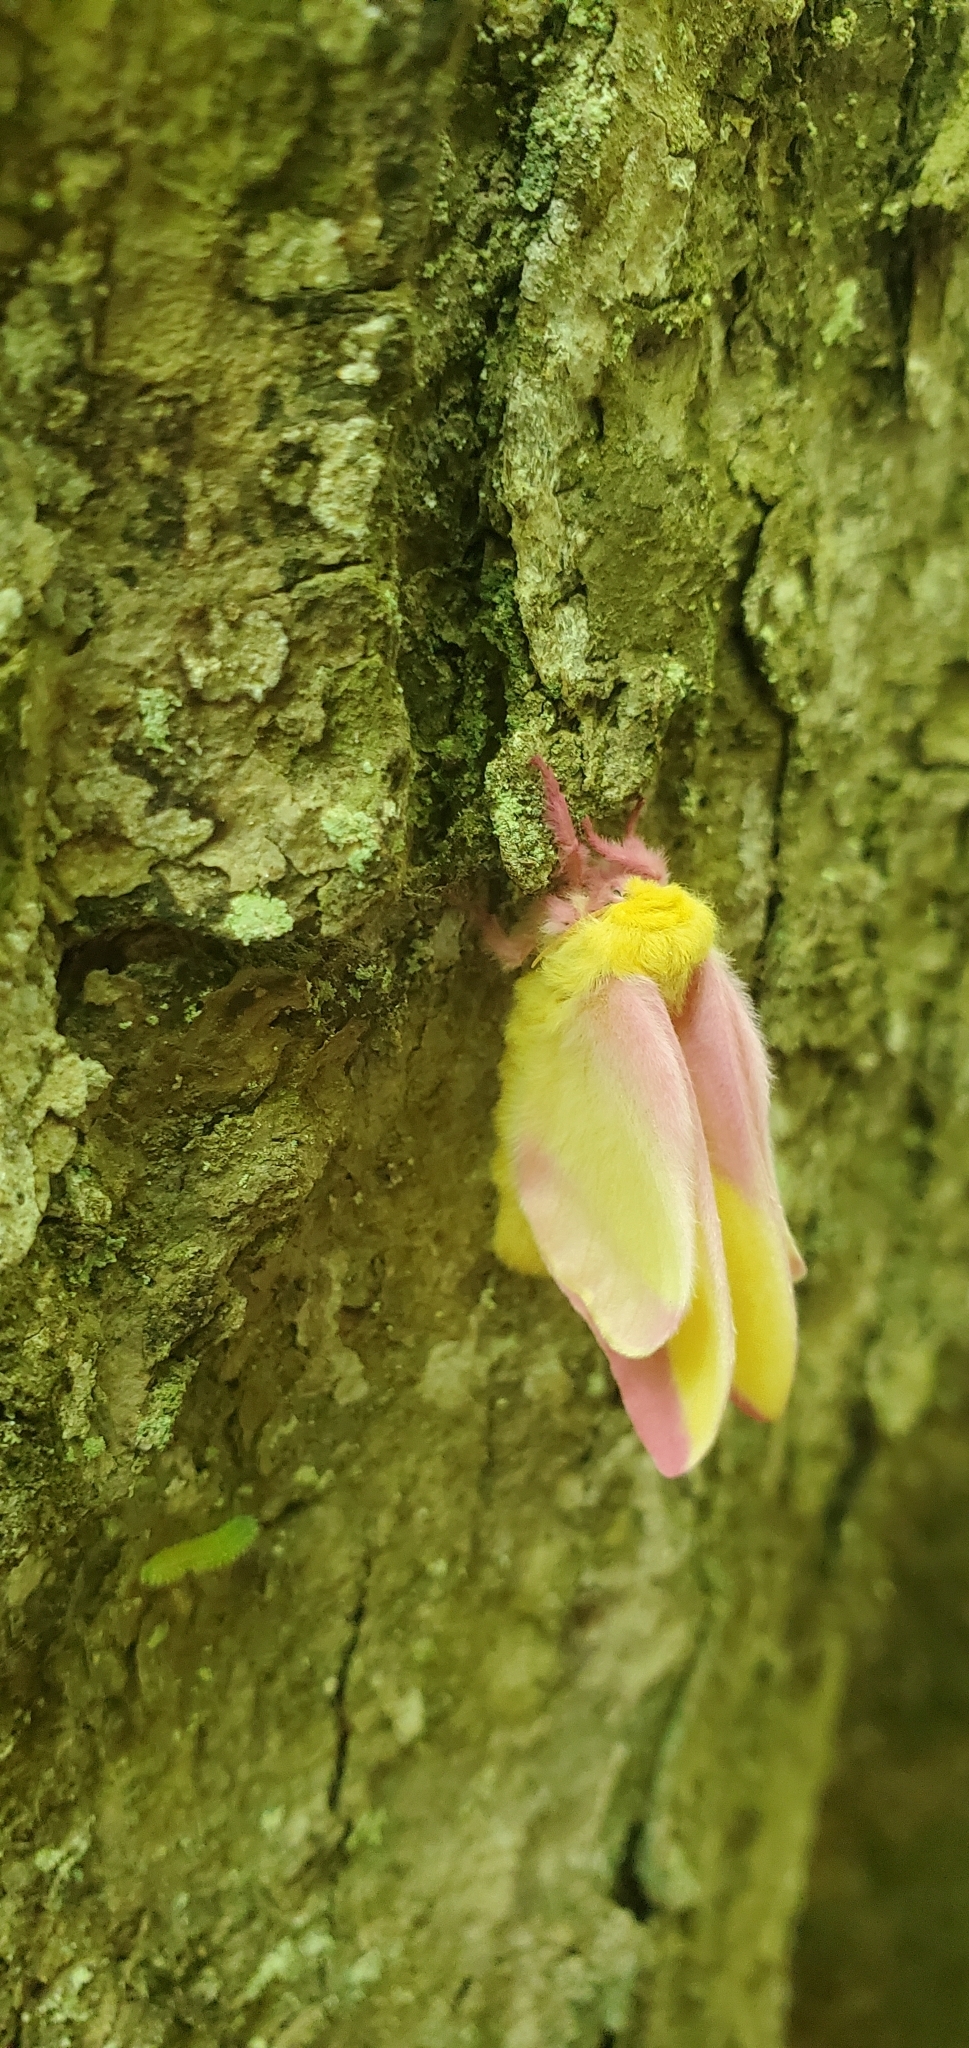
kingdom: Animalia
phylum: Arthropoda
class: Insecta
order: Lepidoptera
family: Saturniidae
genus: Dryocampa
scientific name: Dryocampa rubicunda
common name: Rosy maple moth
